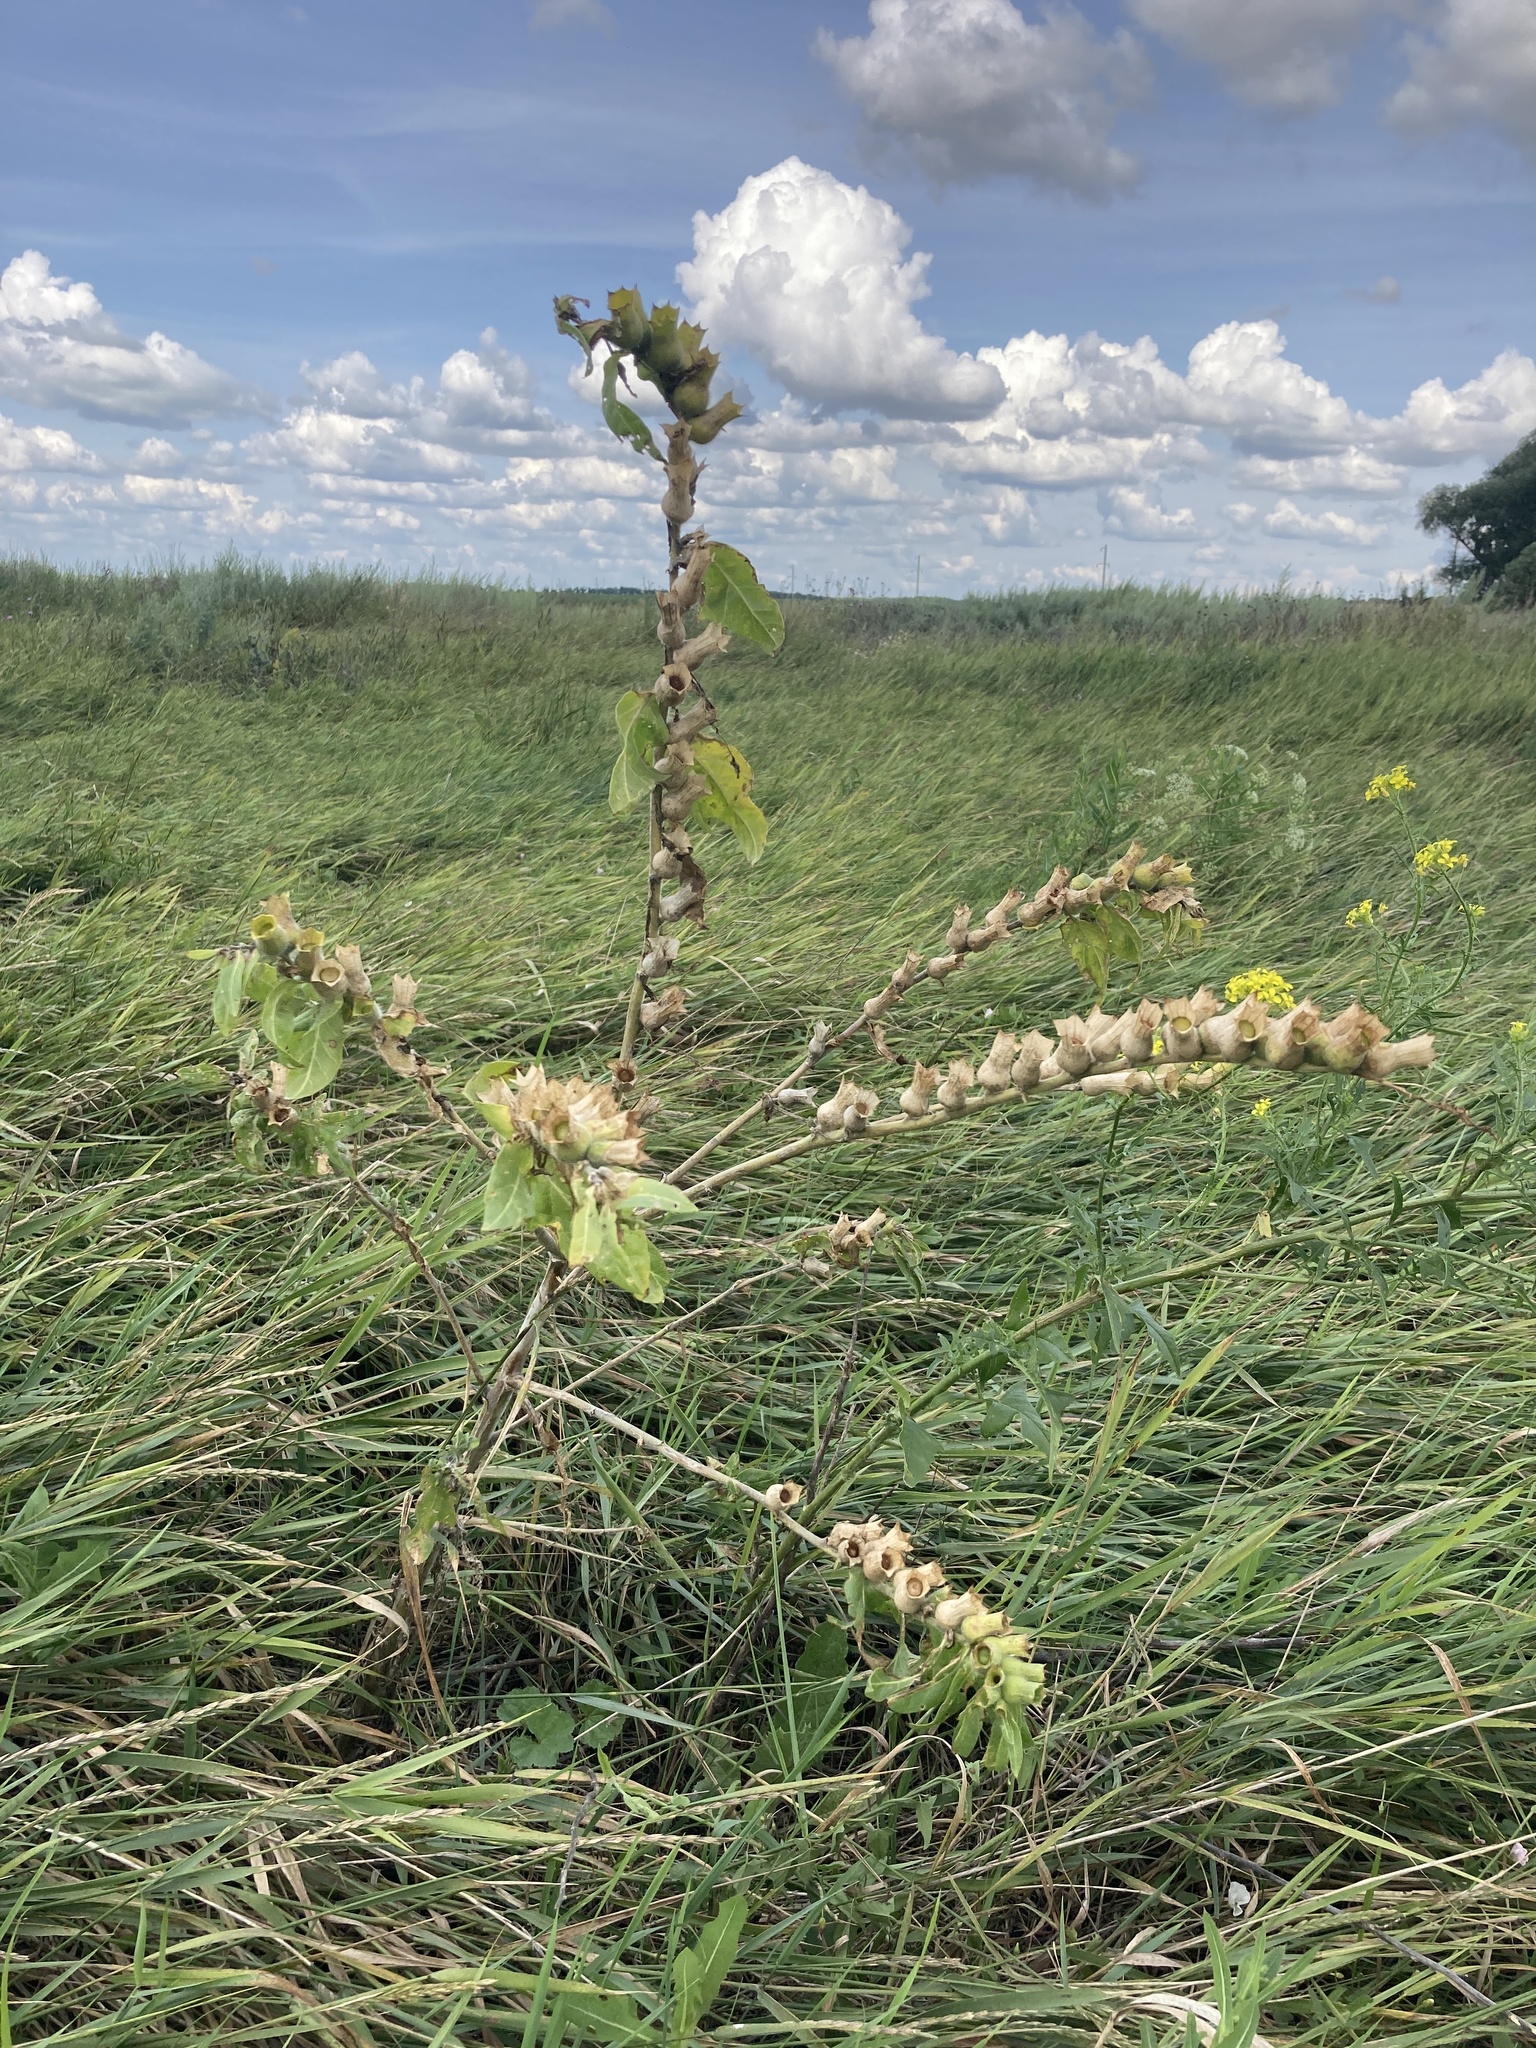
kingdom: Plantae
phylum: Tracheophyta
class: Magnoliopsida
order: Solanales
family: Solanaceae
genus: Hyoscyamus
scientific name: Hyoscyamus niger
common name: Henbane
